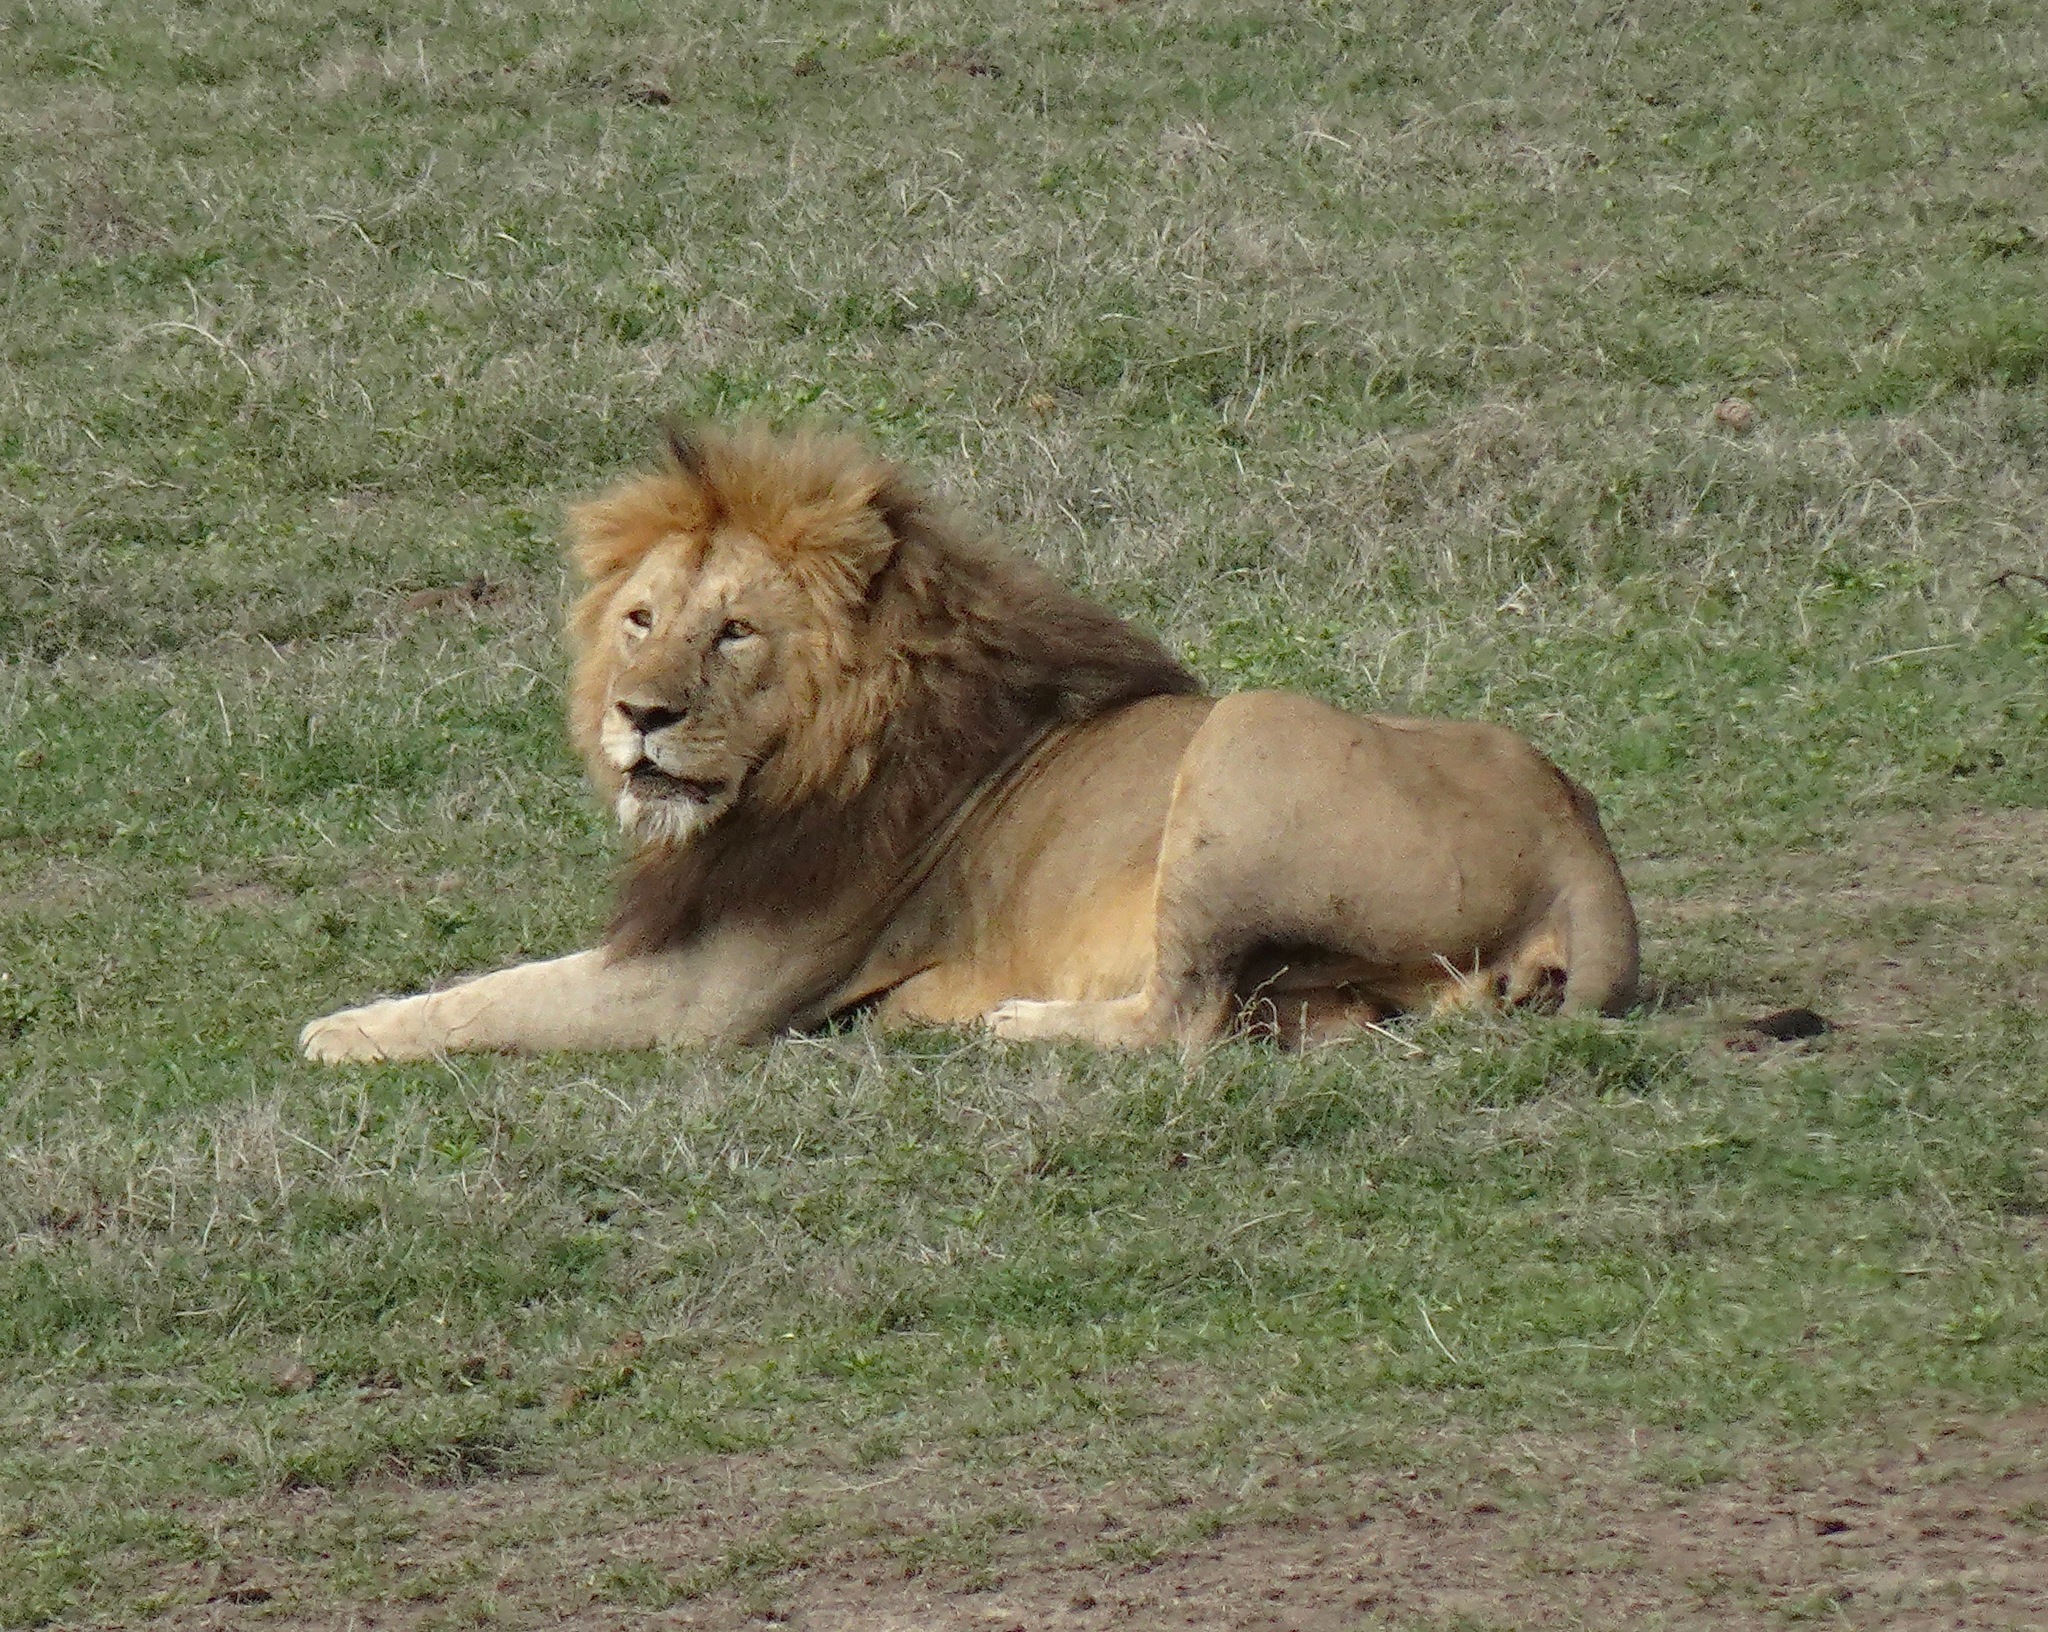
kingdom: Animalia
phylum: Chordata
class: Mammalia
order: Carnivora
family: Felidae
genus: Panthera
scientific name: Panthera leo
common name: Lion
